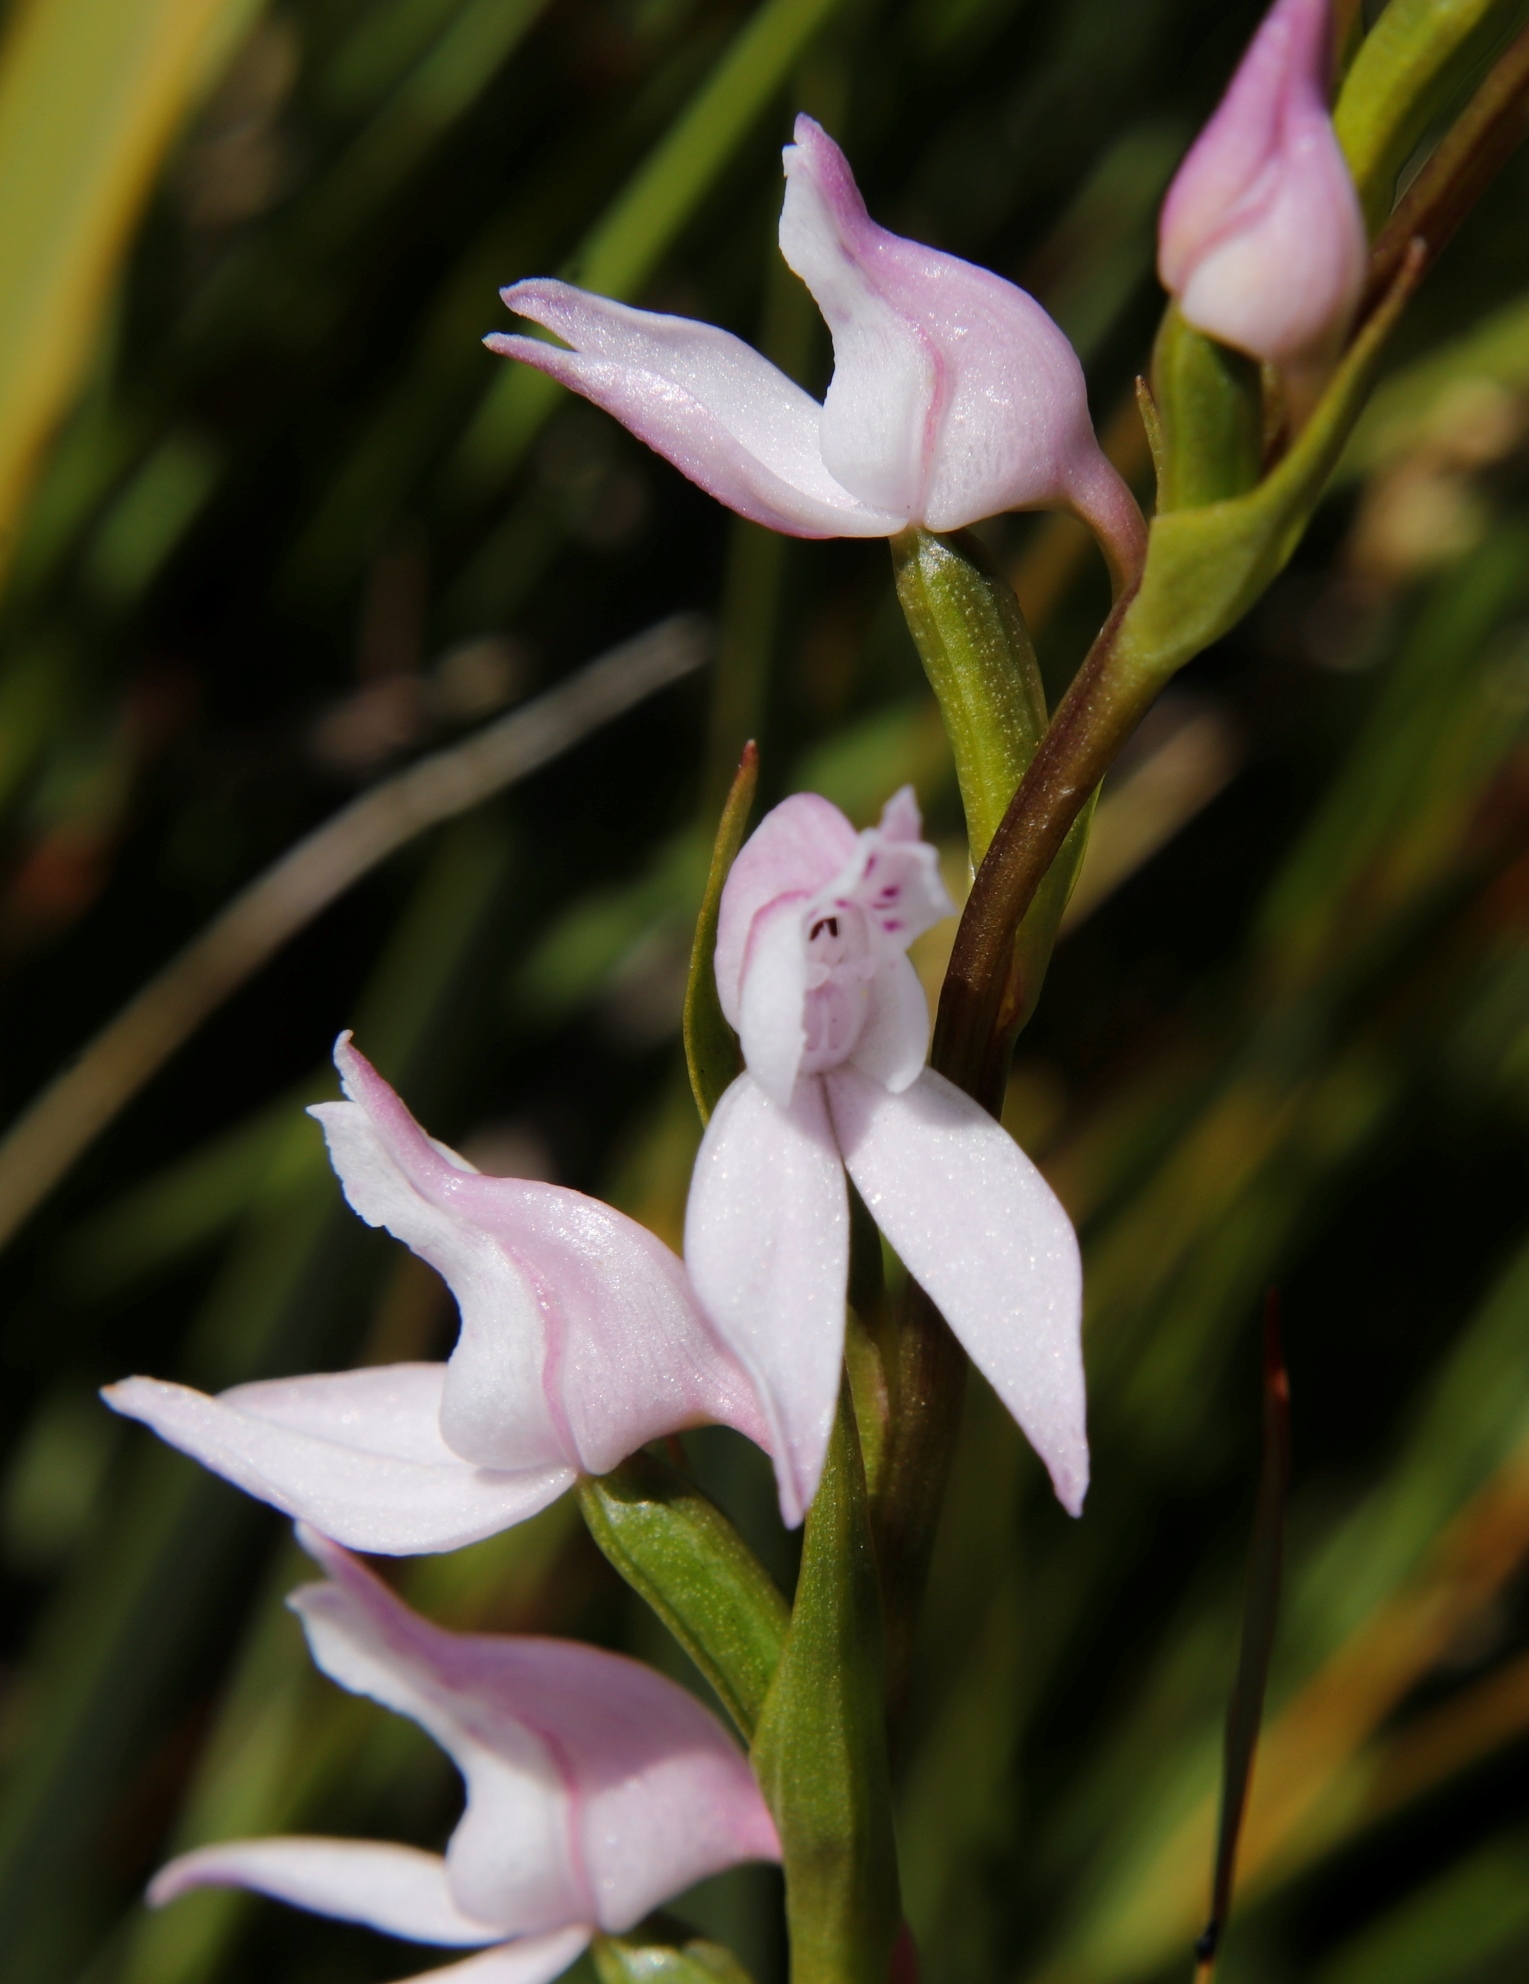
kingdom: Plantae
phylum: Tracheophyta
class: Liliopsida
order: Asparagales
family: Orchidaceae
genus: Brownleea
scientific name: Brownleea recurvata
